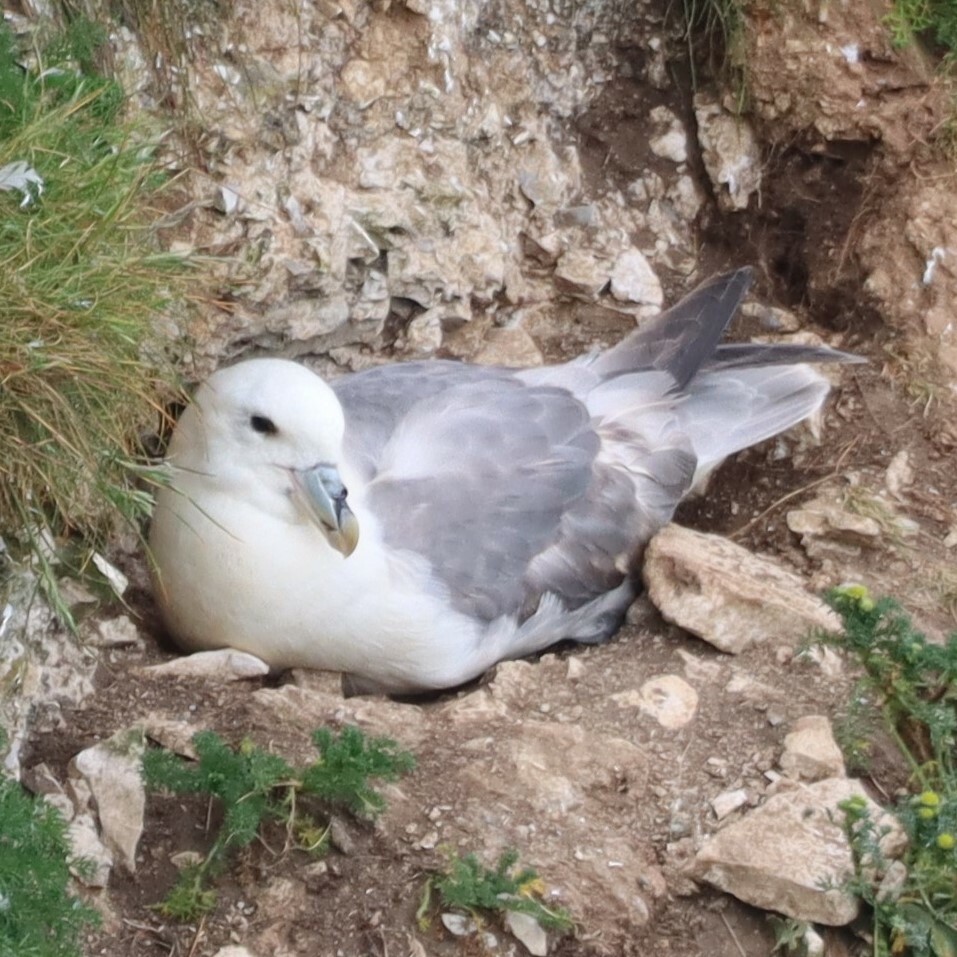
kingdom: Animalia
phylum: Chordata
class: Aves
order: Procellariiformes
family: Procellariidae
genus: Fulmarus
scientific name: Fulmarus glacialis
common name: Northern fulmar
